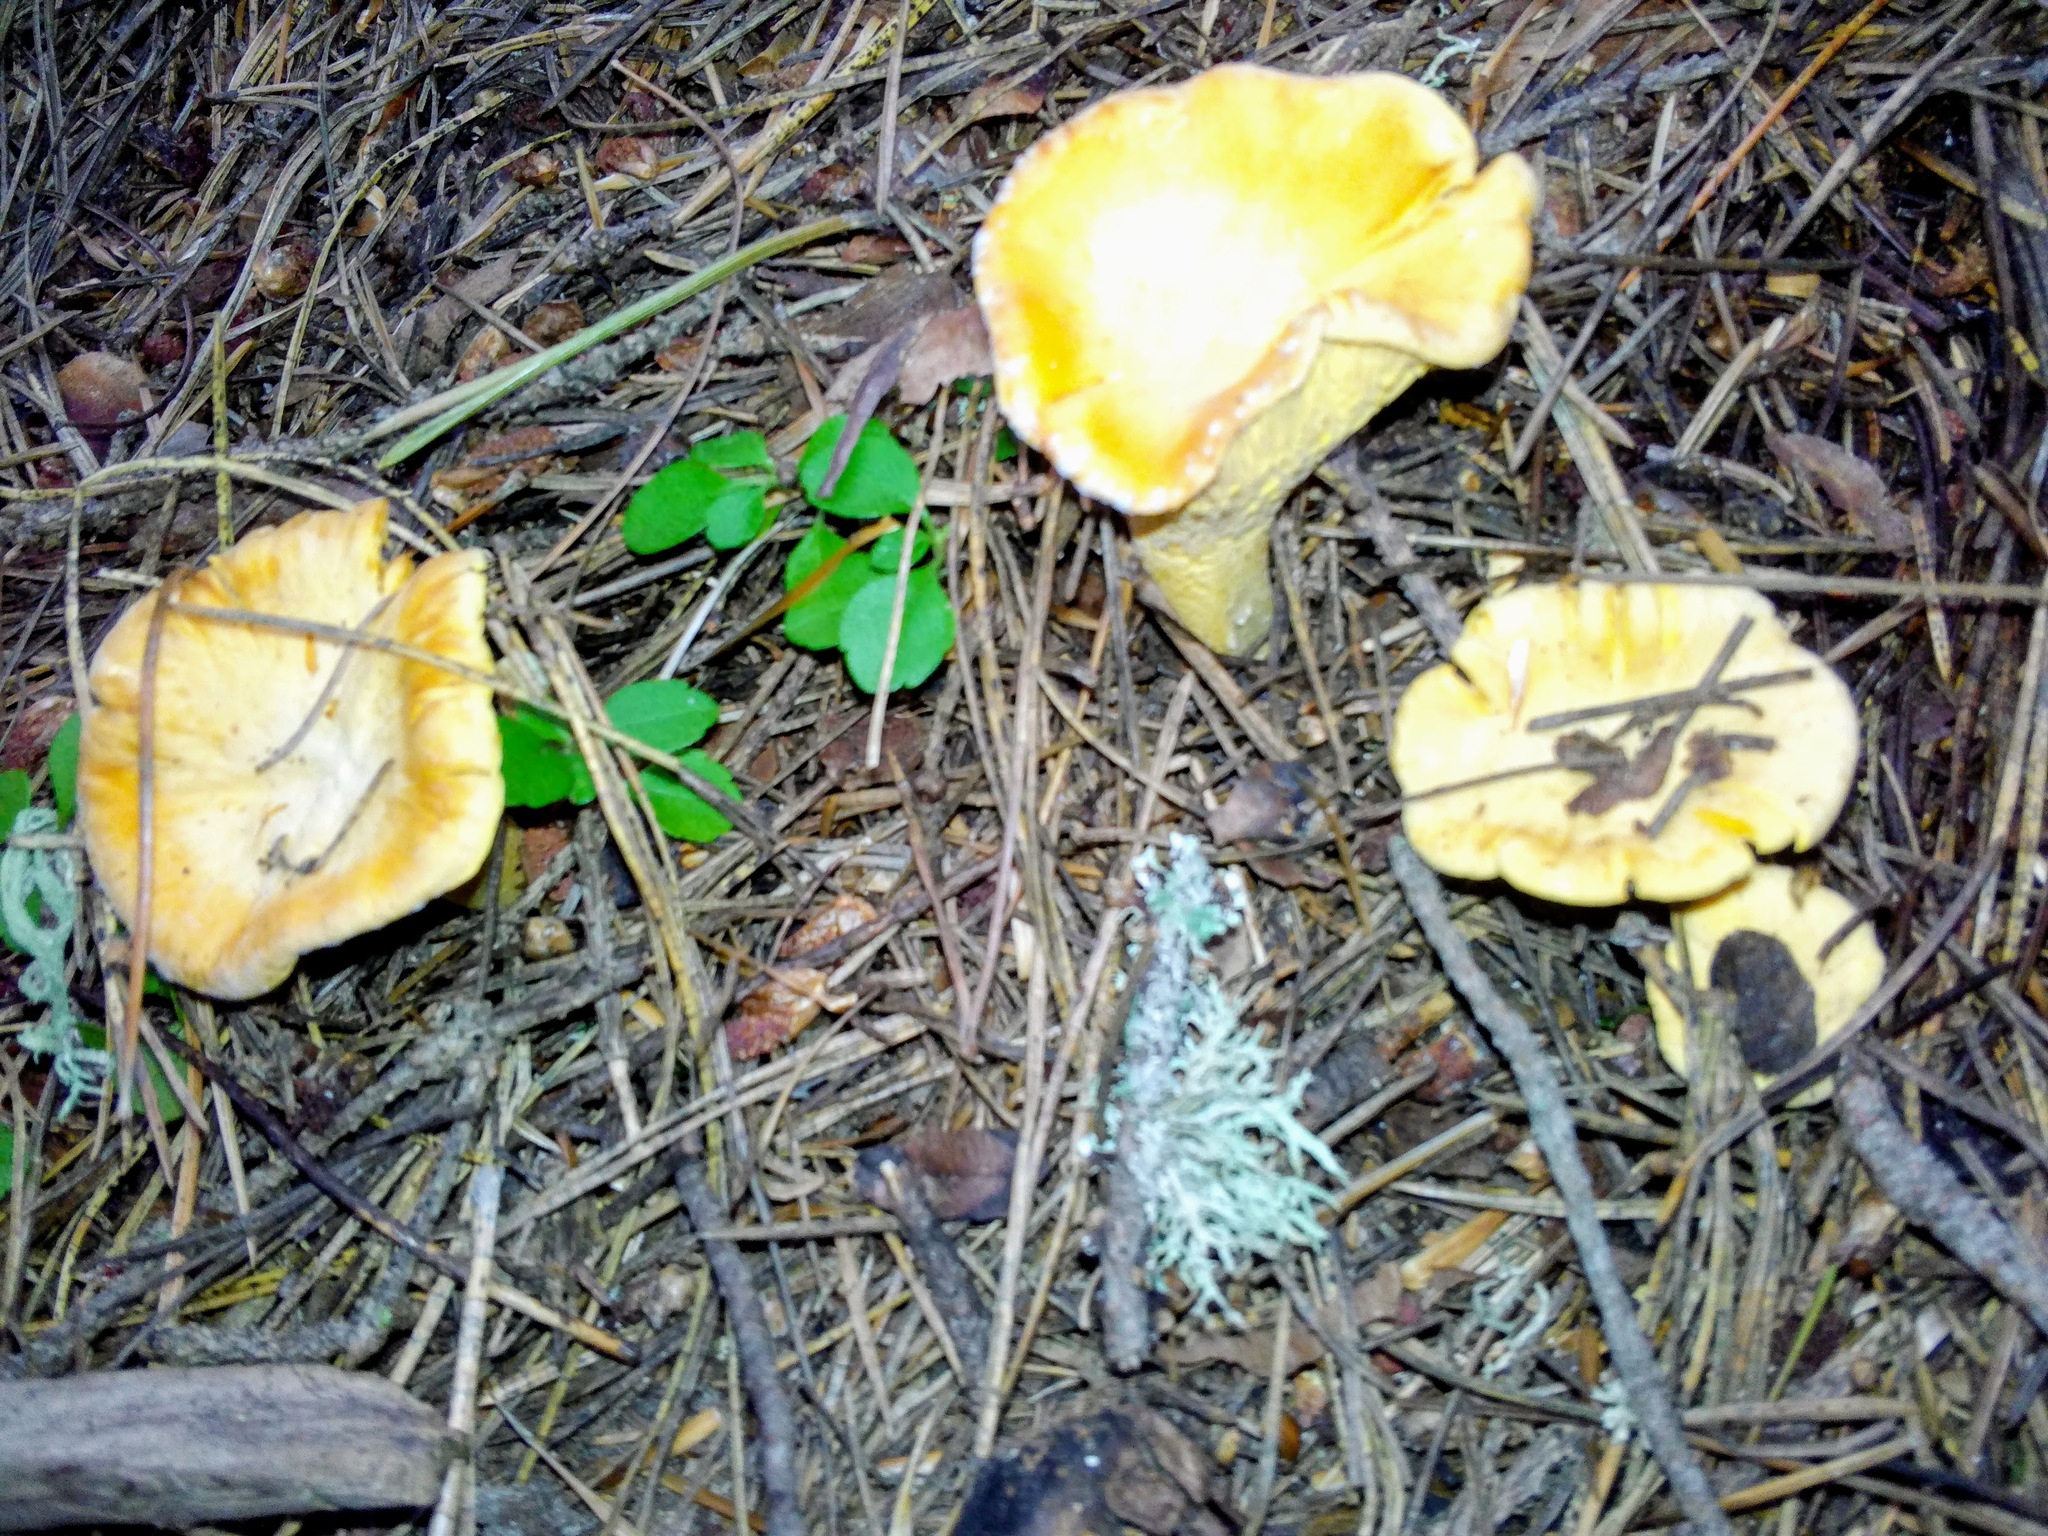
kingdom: Fungi
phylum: Basidiomycota
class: Agaricomycetes
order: Cantharellales
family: Hydnaceae
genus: Cantharellus
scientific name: Cantharellus cibarius
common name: Chanterelle
